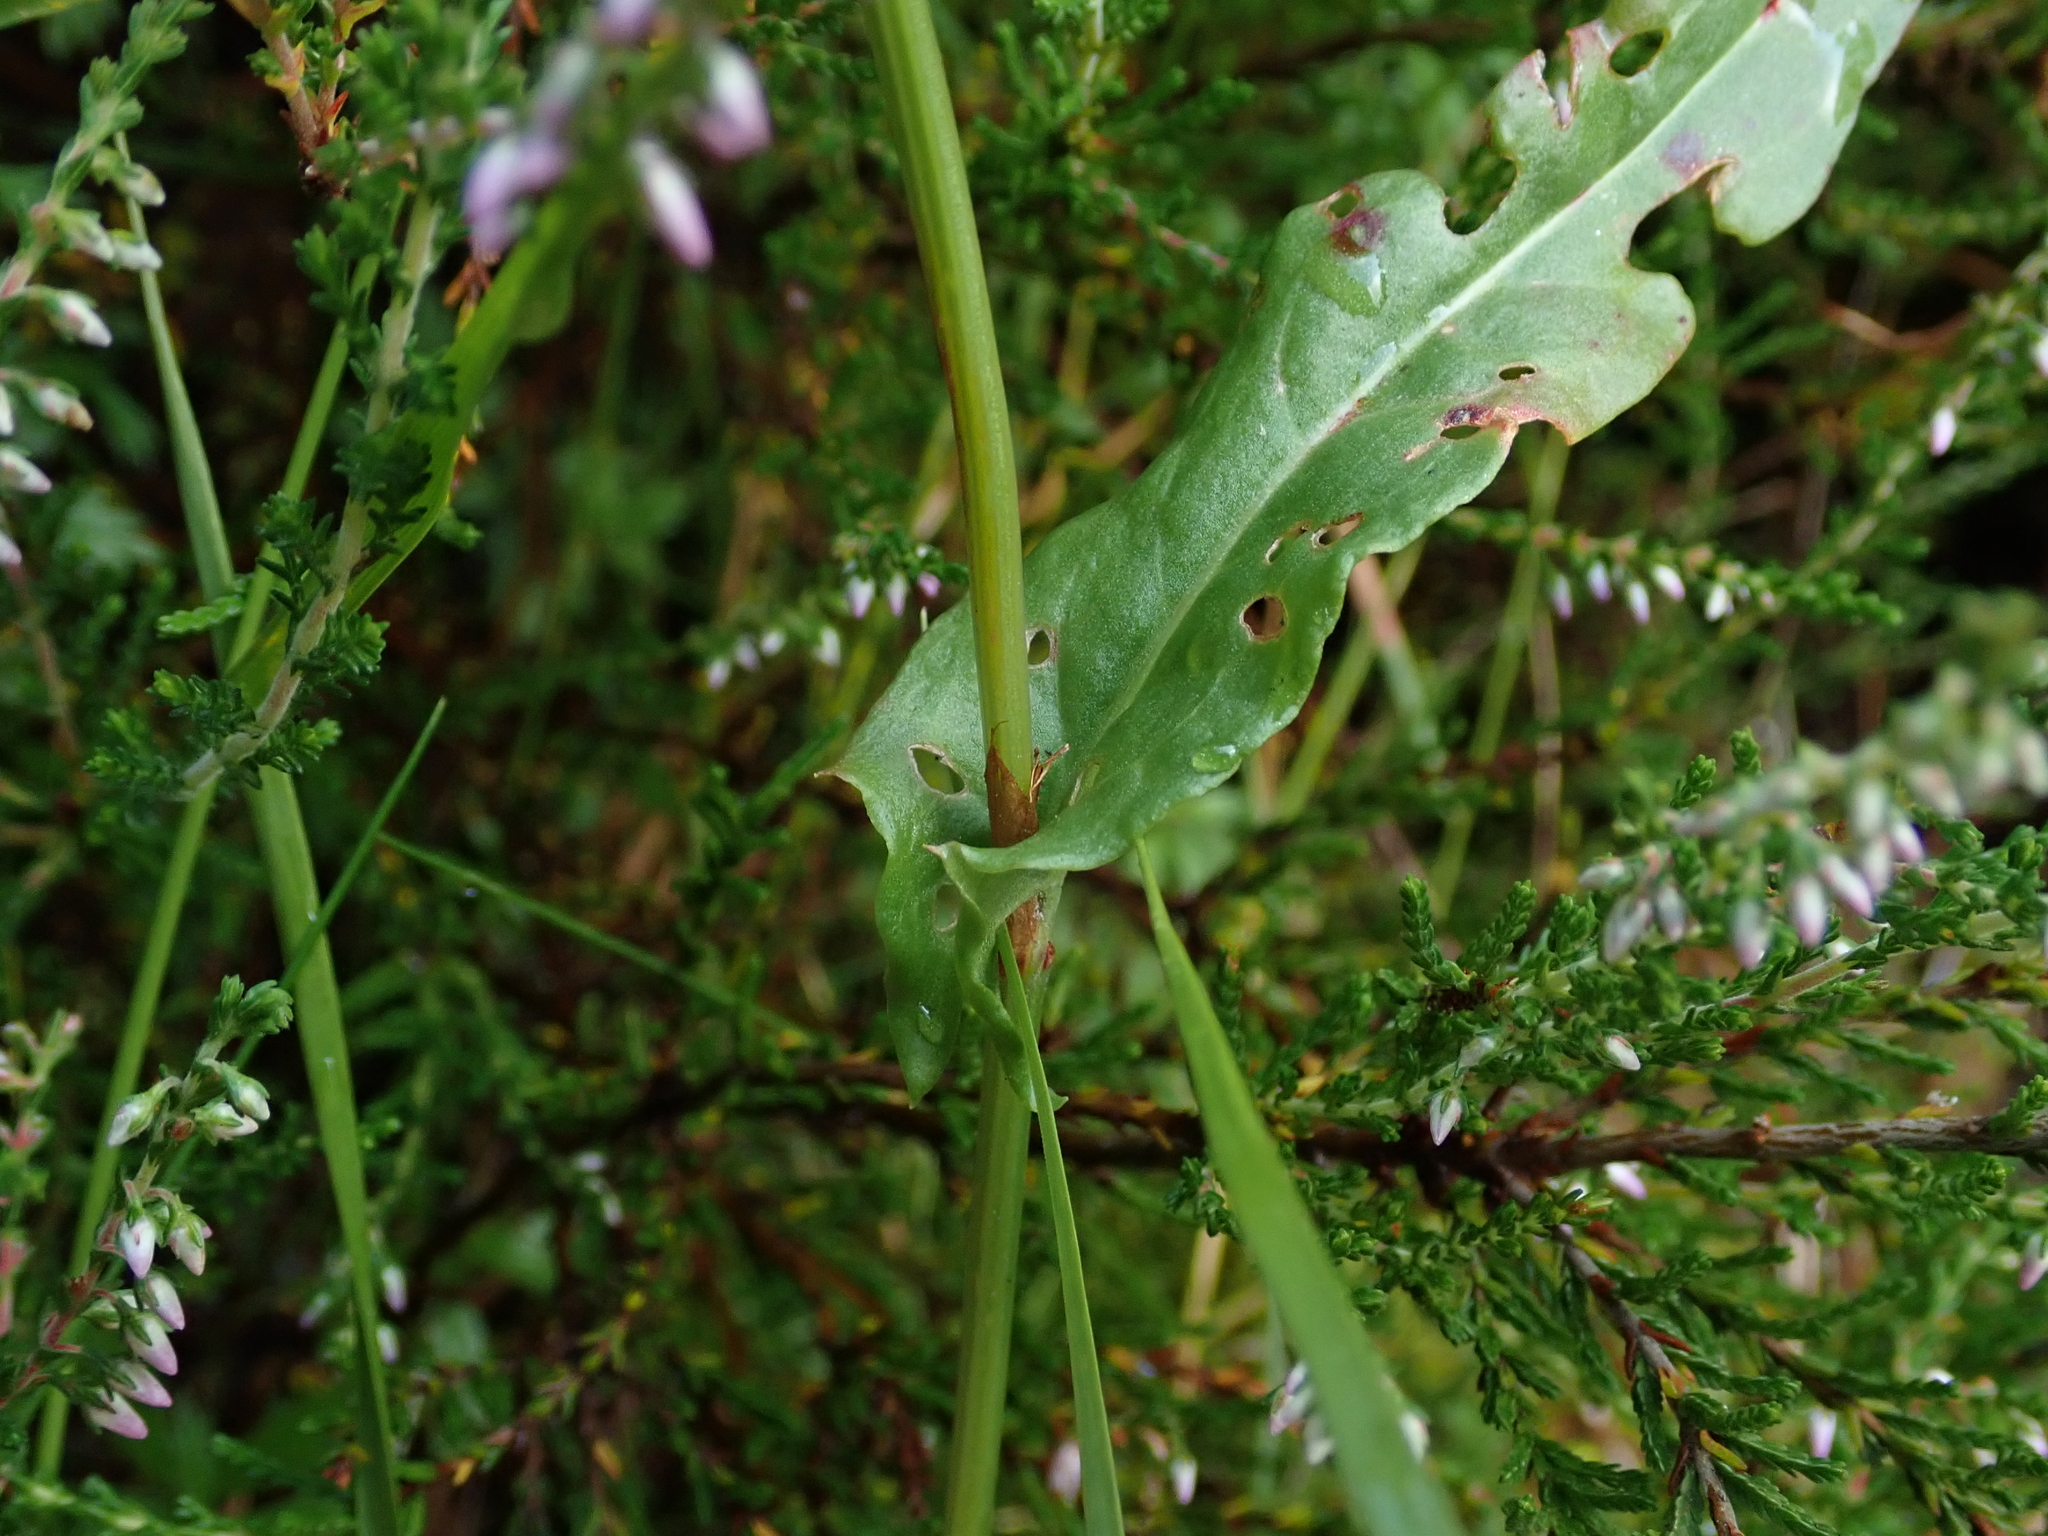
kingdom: Plantae
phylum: Tracheophyta
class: Magnoliopsida
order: Caryophyllales
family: Polygonaceae
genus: Rumex
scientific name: Rumex acetosa
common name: Garden sorrel
